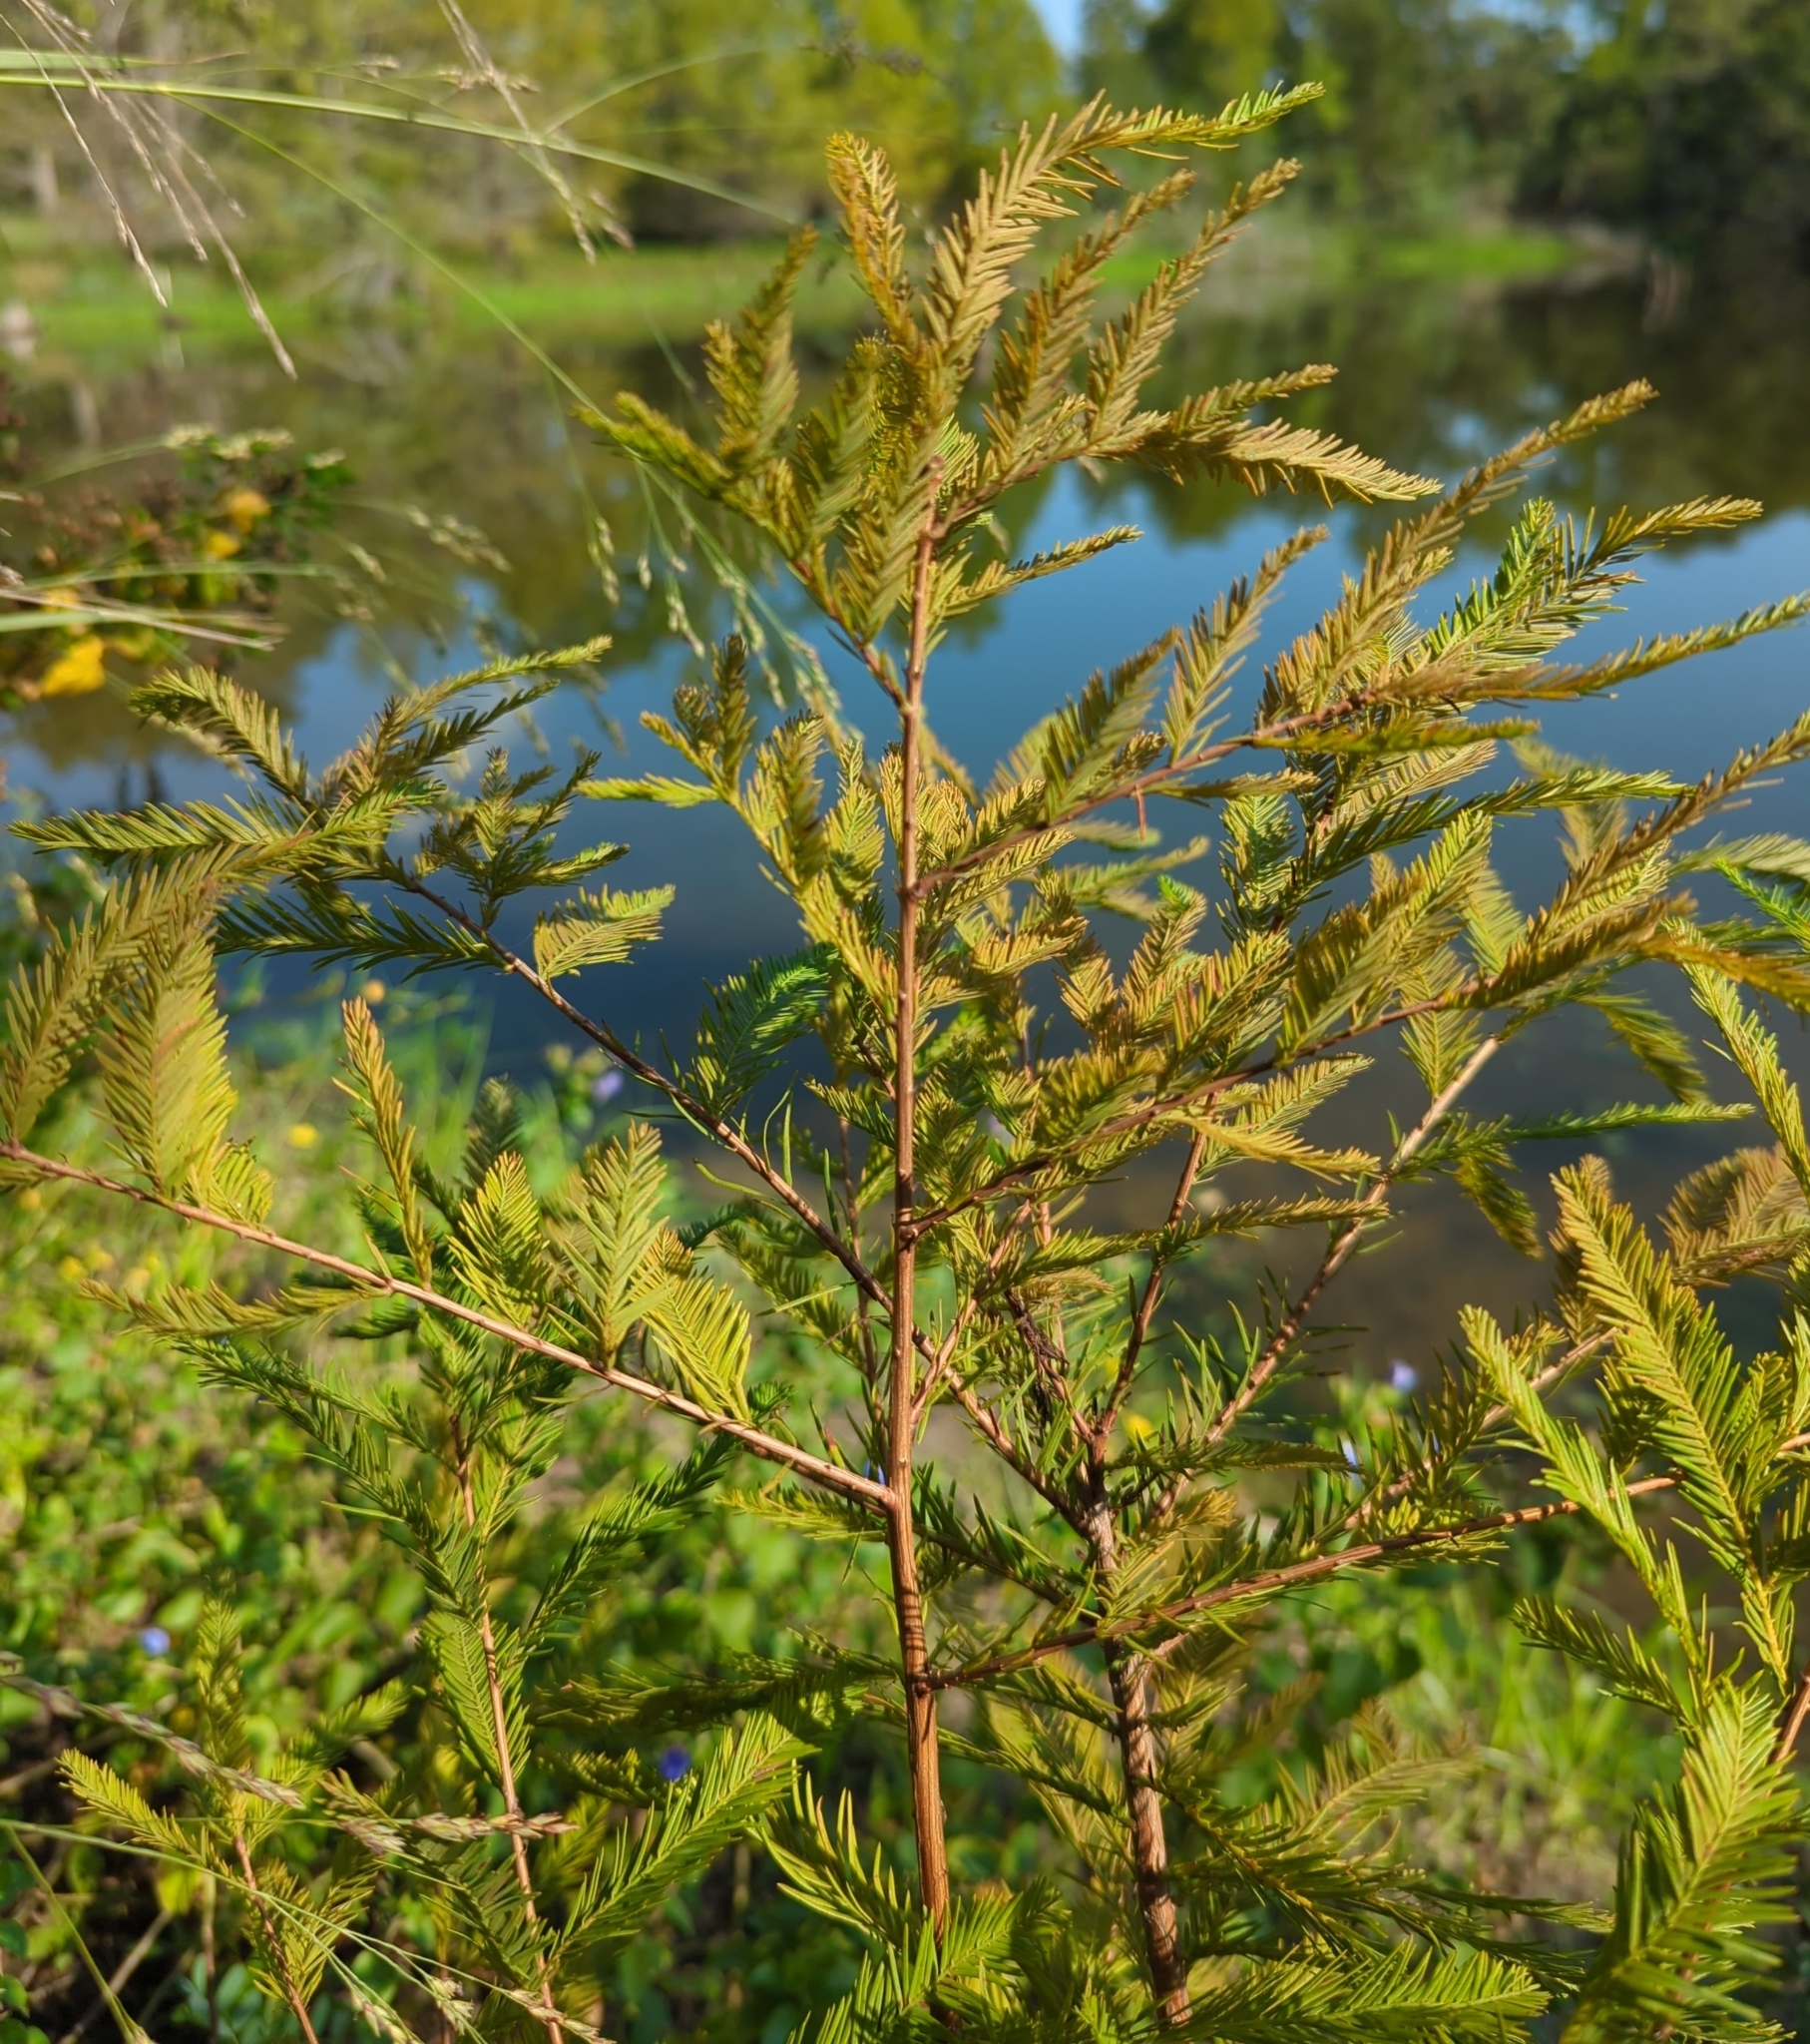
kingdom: Plantae
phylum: Tracheophyta
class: Pinopsida
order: Pinales
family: Cupressaceae
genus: Taxodium
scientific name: Taxodium distichum
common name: Bald cypress
